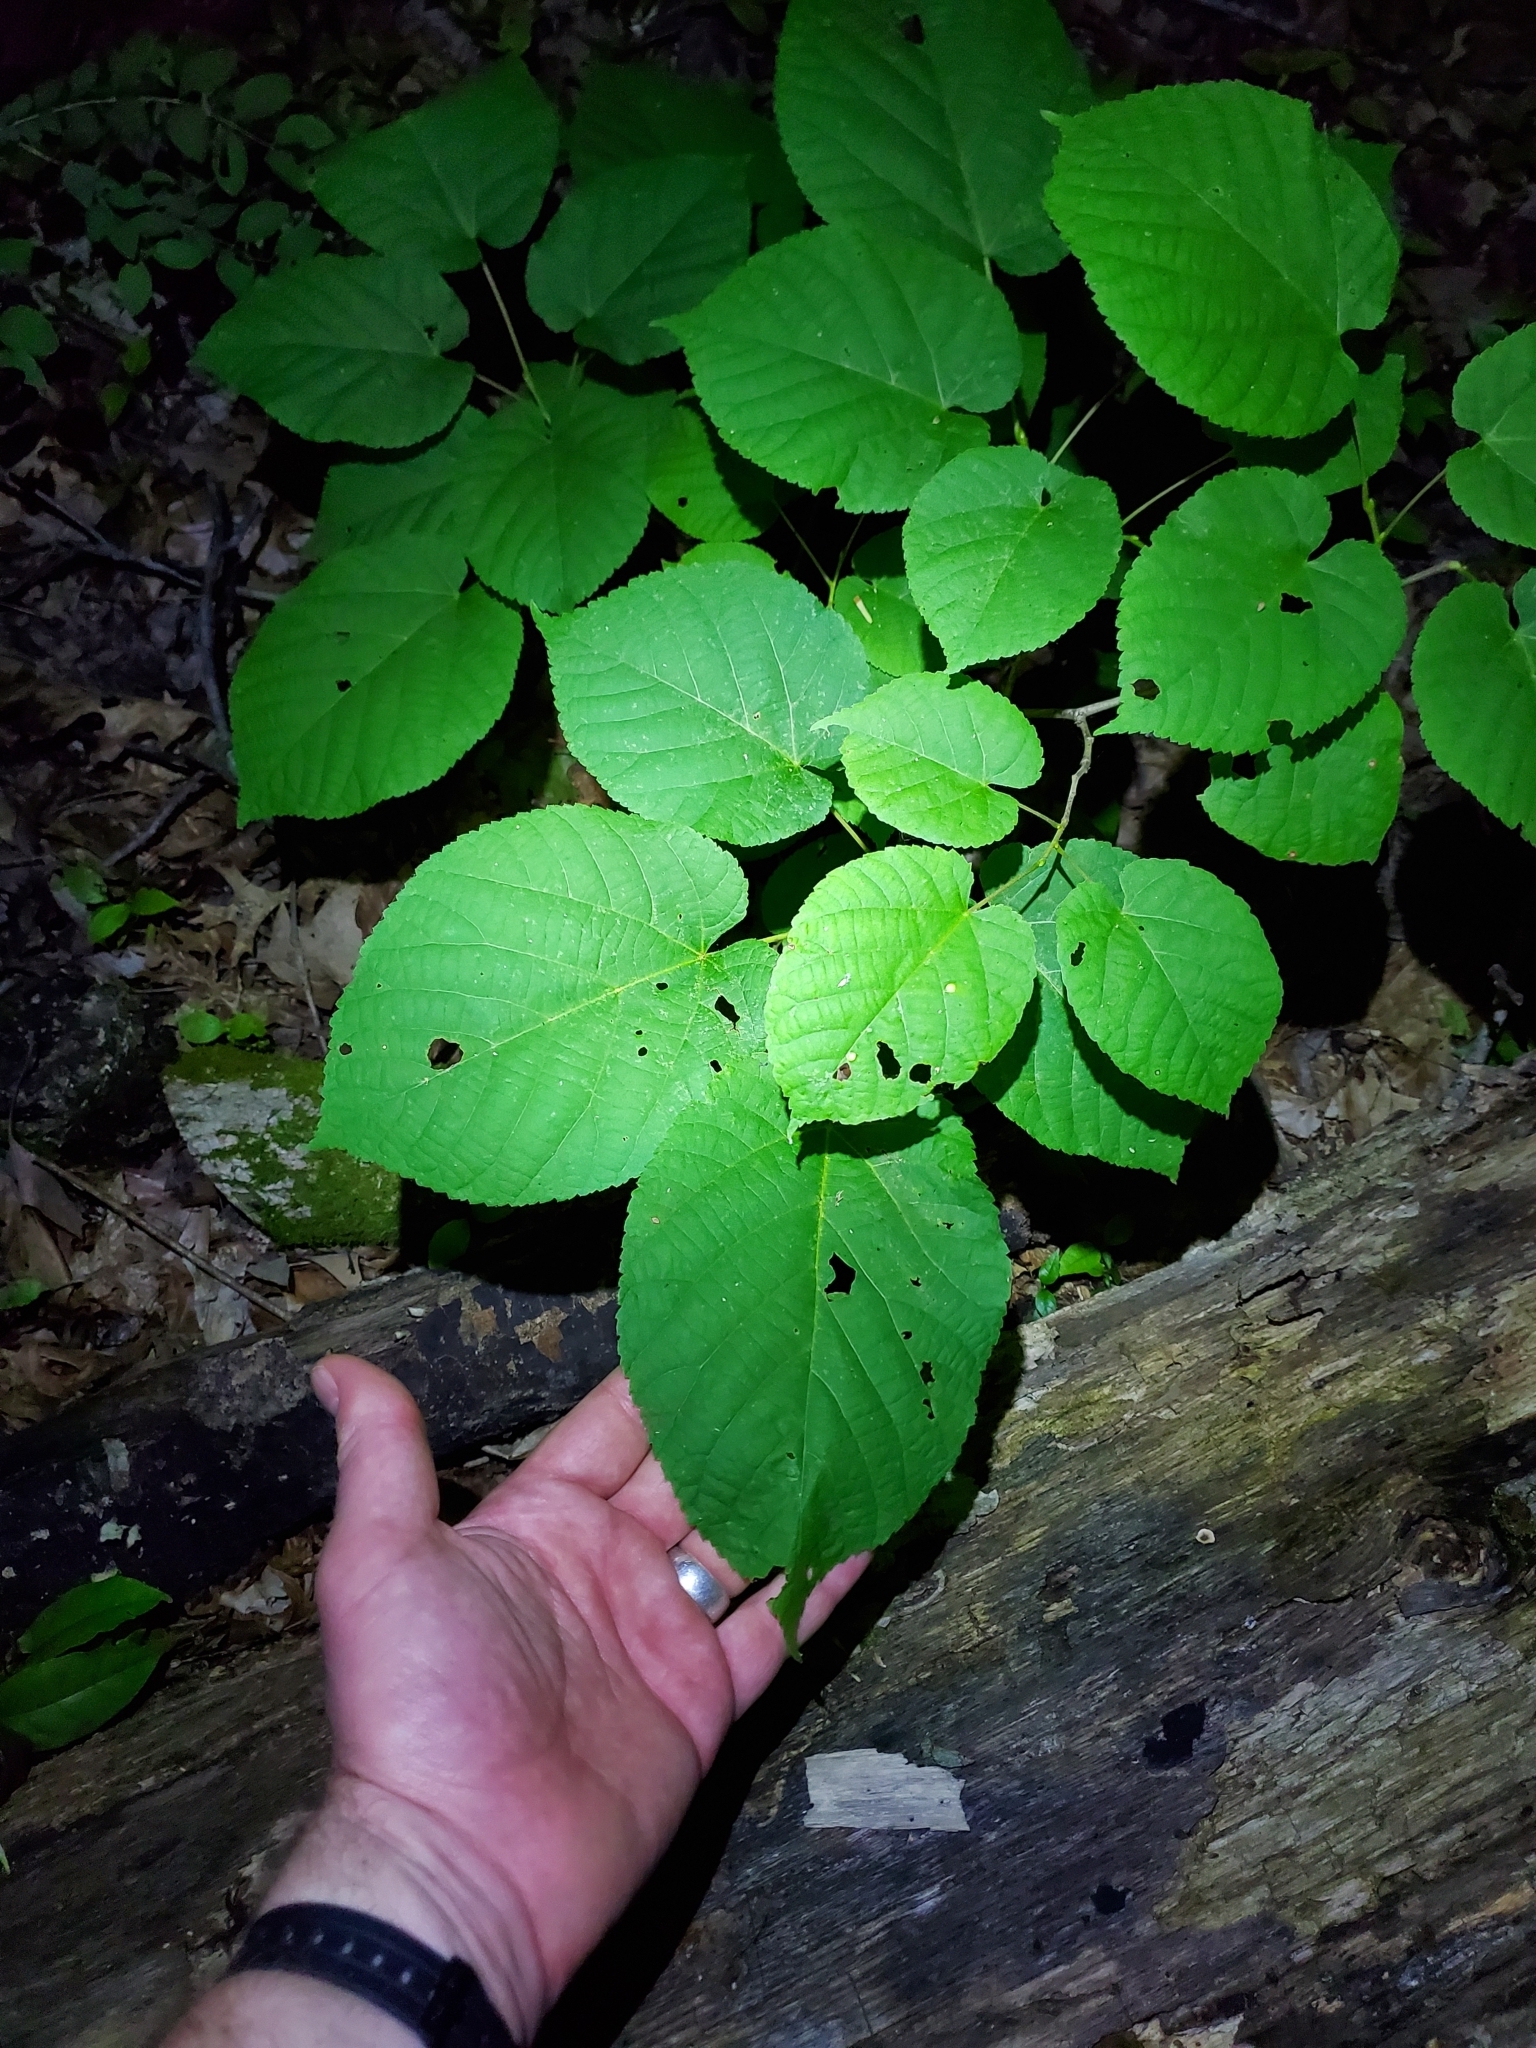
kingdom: Plantae
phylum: Tracheophyta
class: Magnoliopsida
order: Malvales
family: Malvaceae
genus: Tilia
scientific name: Tilia americana
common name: Basswood
